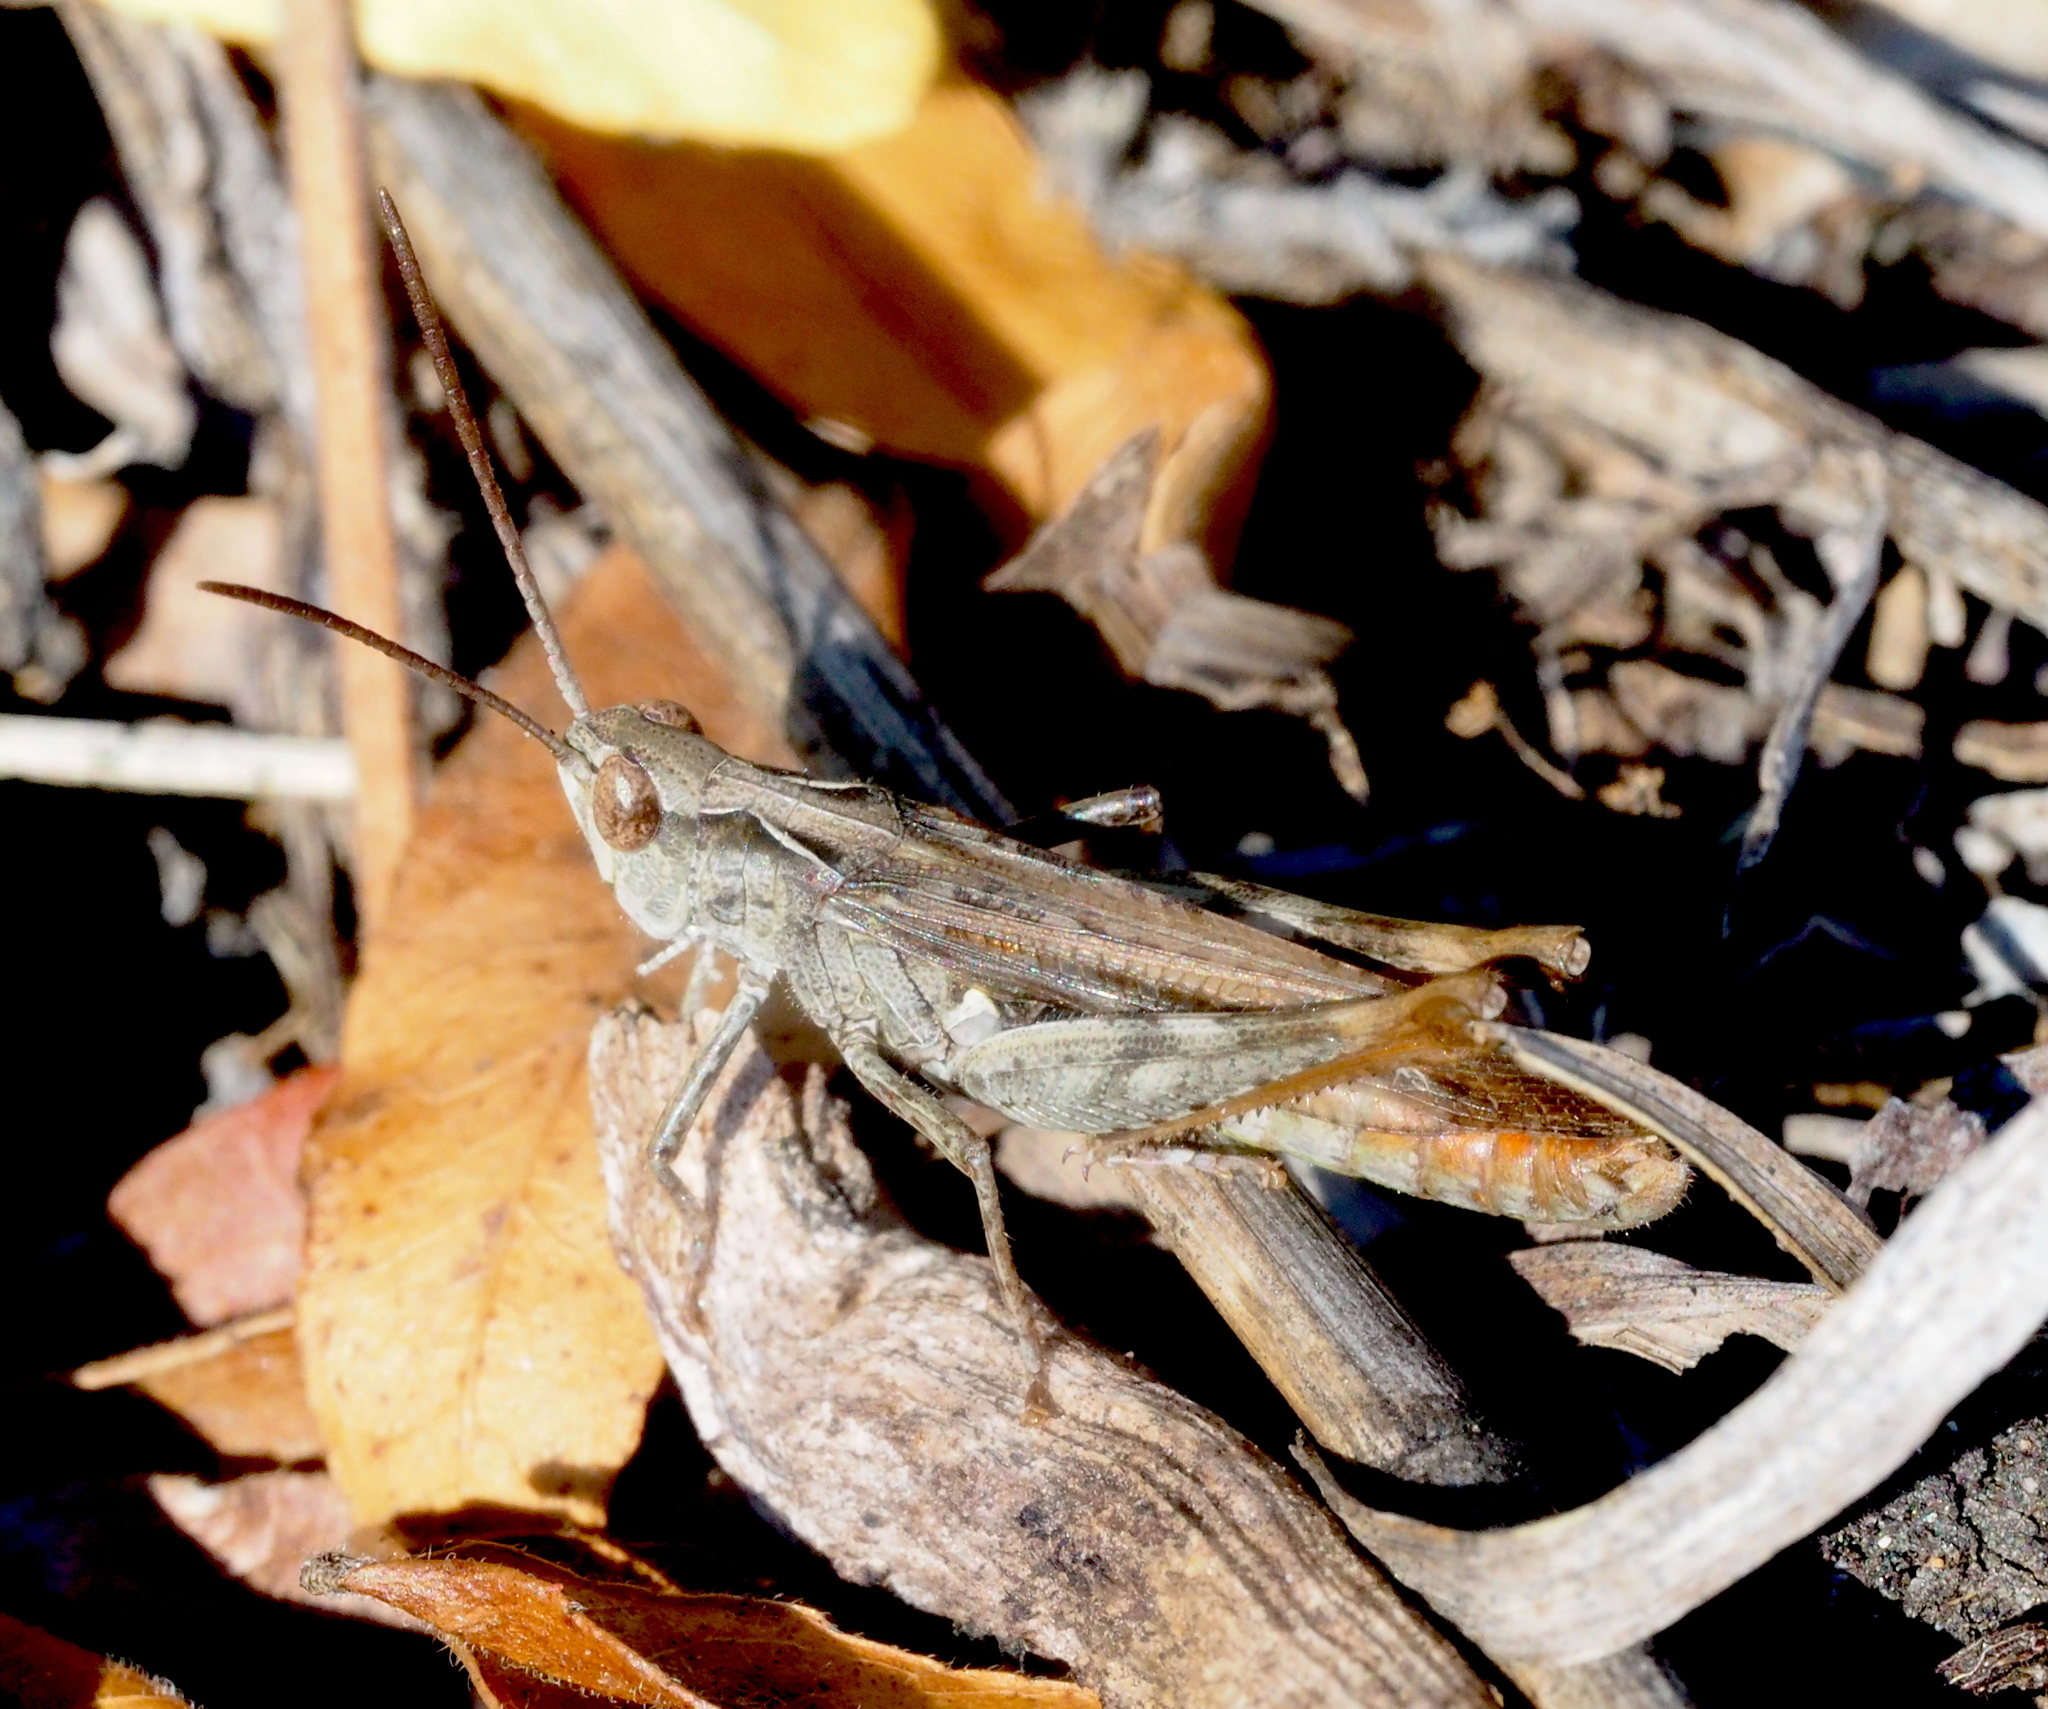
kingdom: Animalia
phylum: Arthropoda
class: Insecta
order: Orthoptera
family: Acrididae
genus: Chorthippus
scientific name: Chorthippus biguttulus
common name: Bow-winged grasshopper
